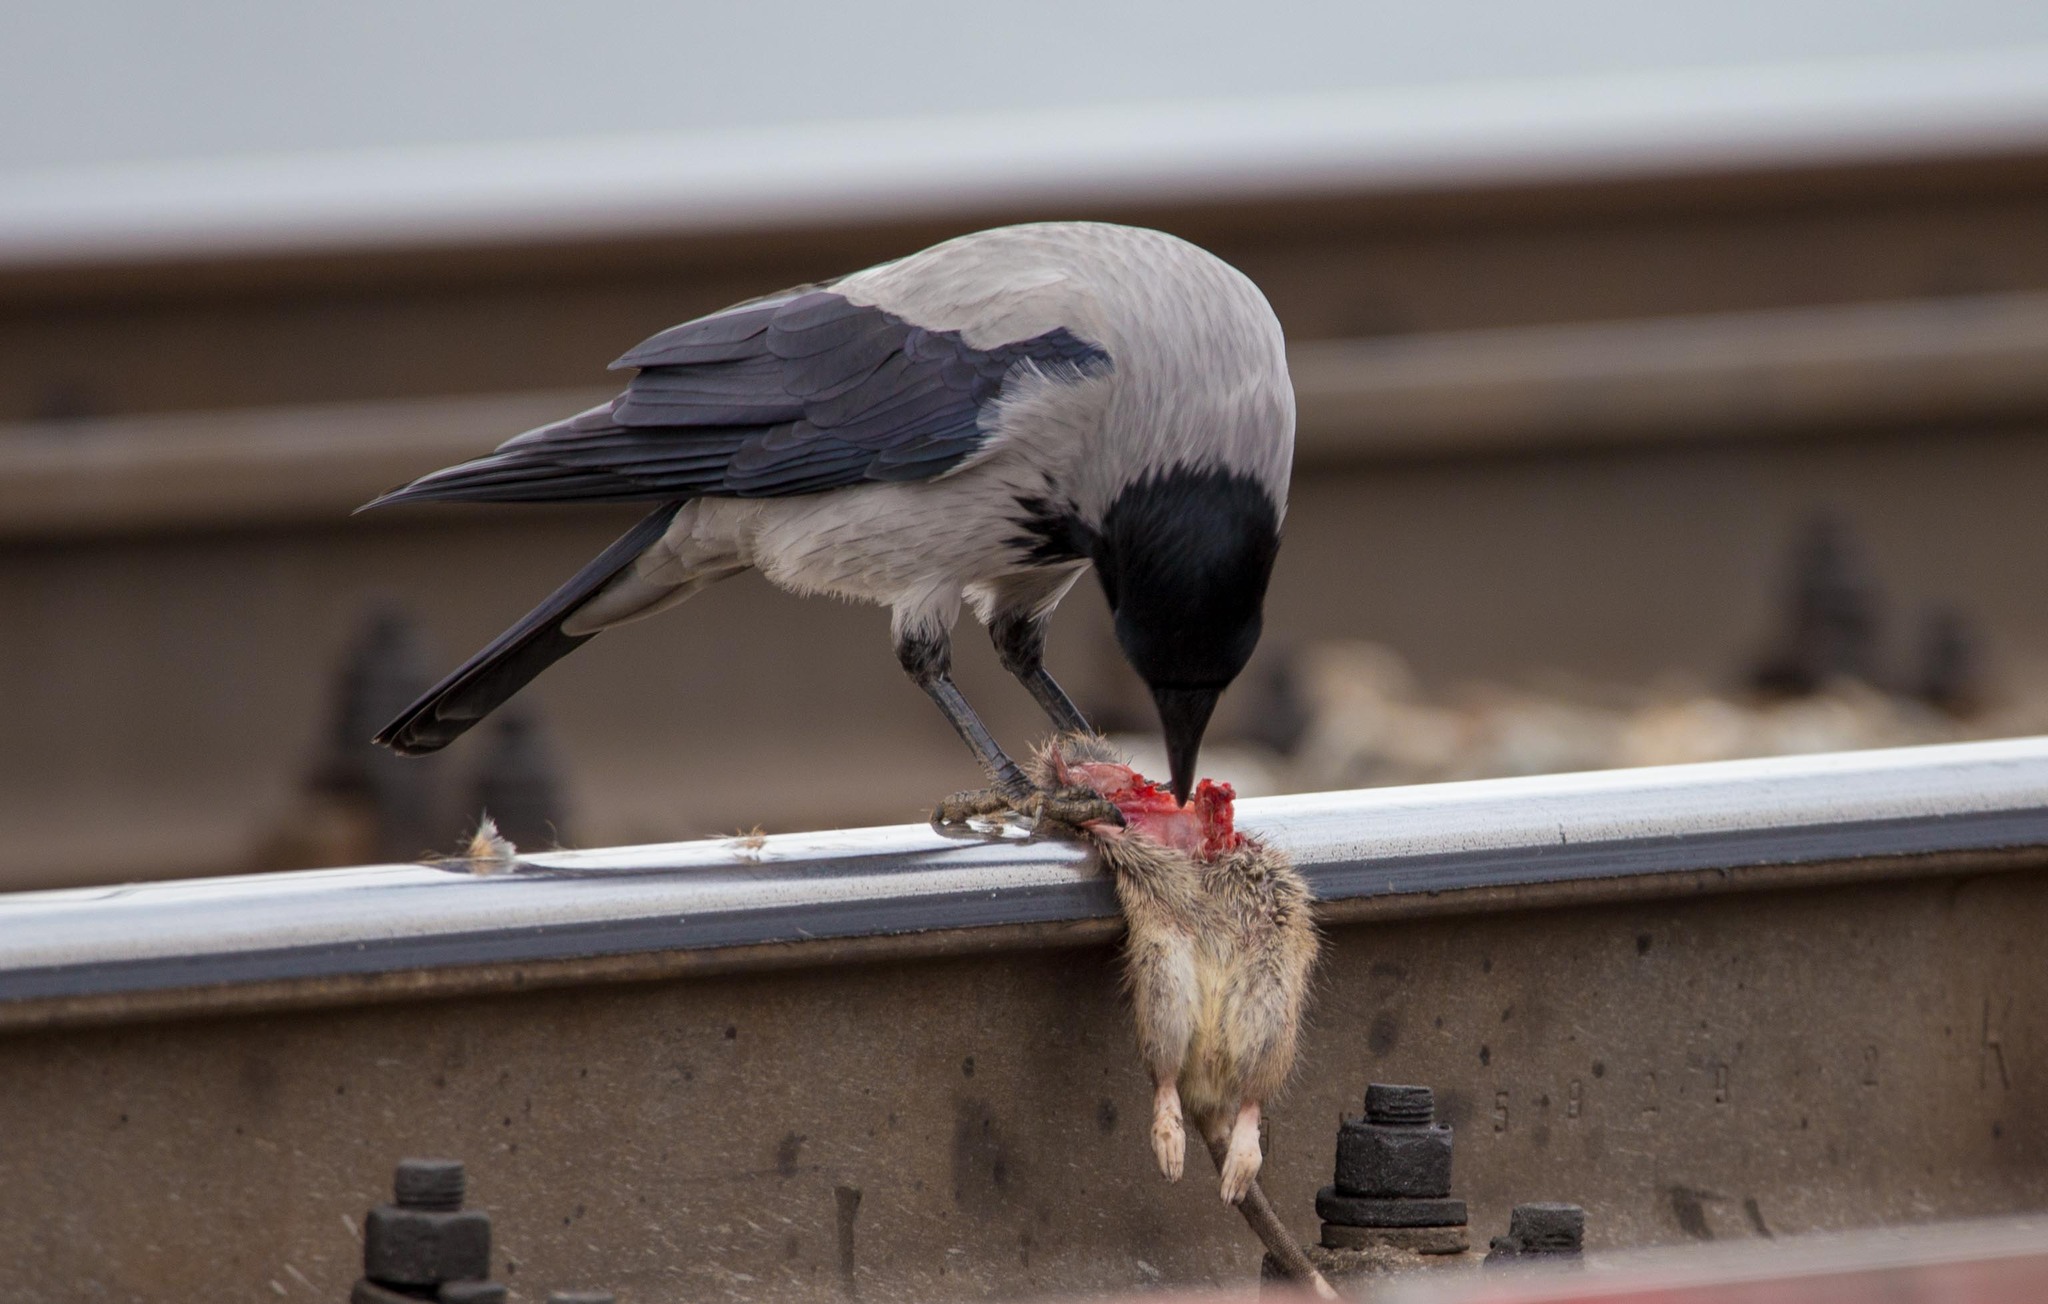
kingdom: Animalia
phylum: Chordata
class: Aves
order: Passeriformes
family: Corvidae
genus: Corvus
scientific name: Corvus cornix
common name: Hooded crow
